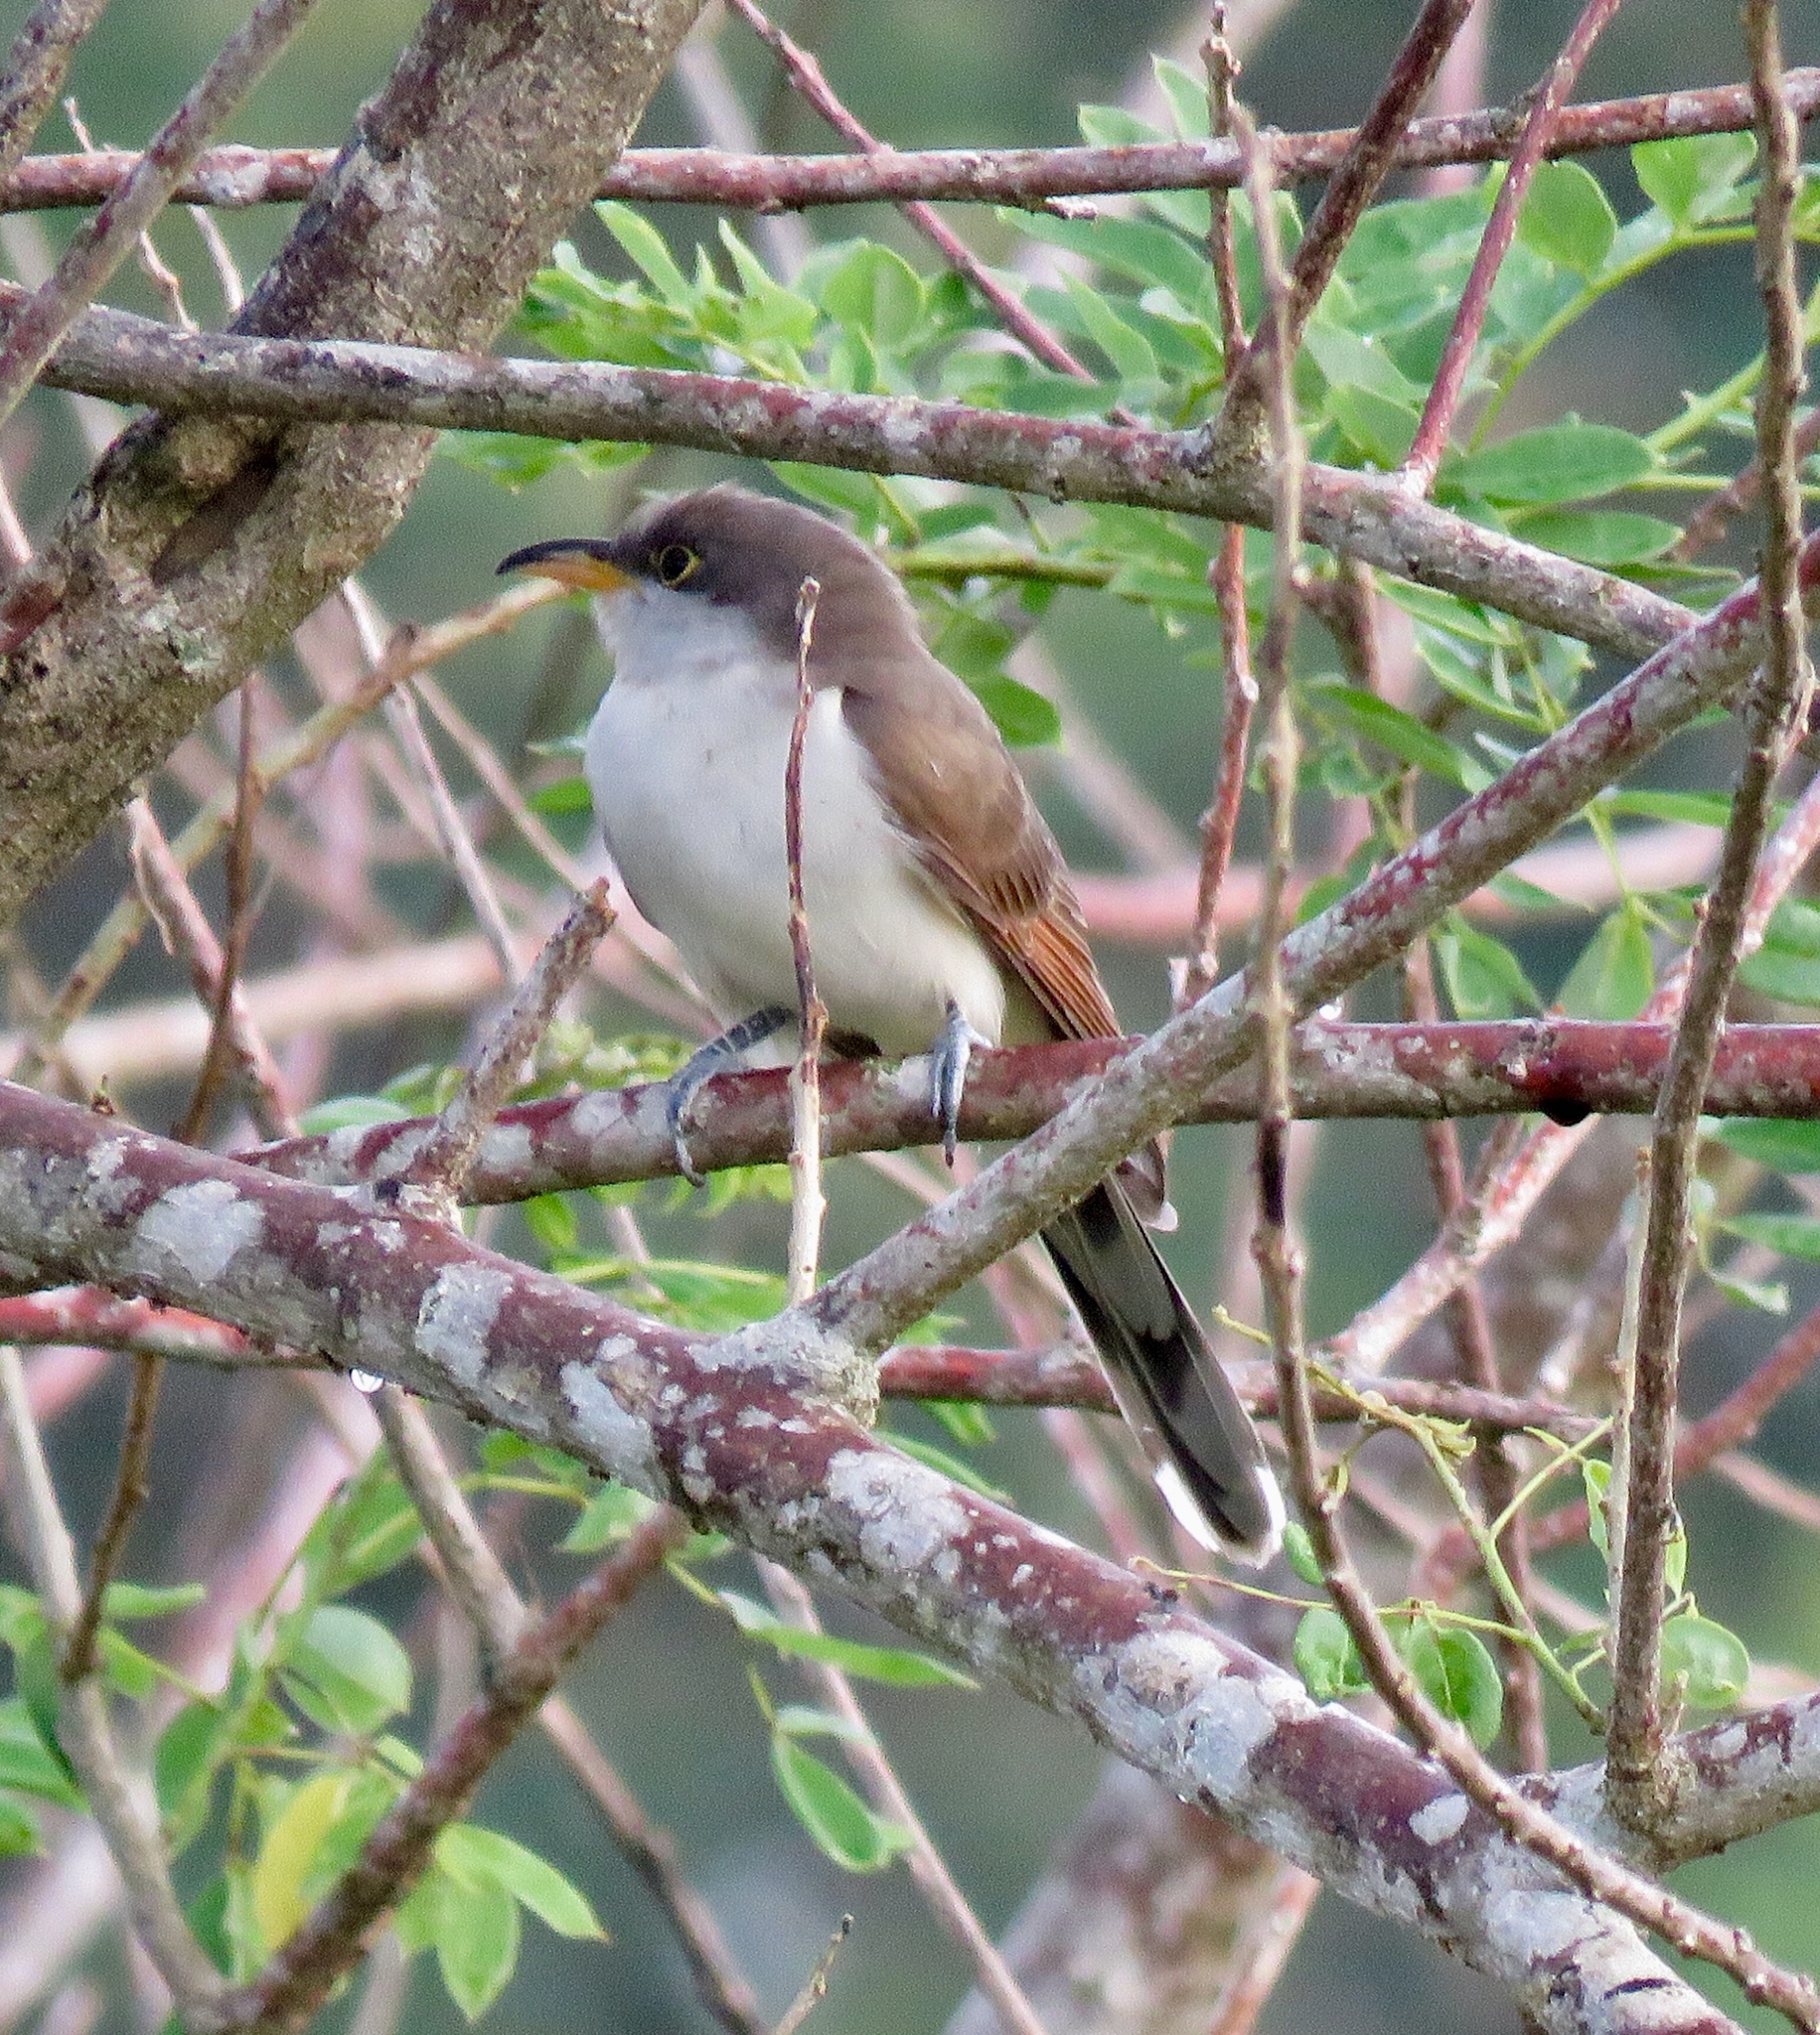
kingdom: Animalia
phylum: Chordata
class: Aves
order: Cuculiformes
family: Cuculidae
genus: Coccyzus
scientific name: Coccyzus americanus
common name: Yellow-billed cuckoo
